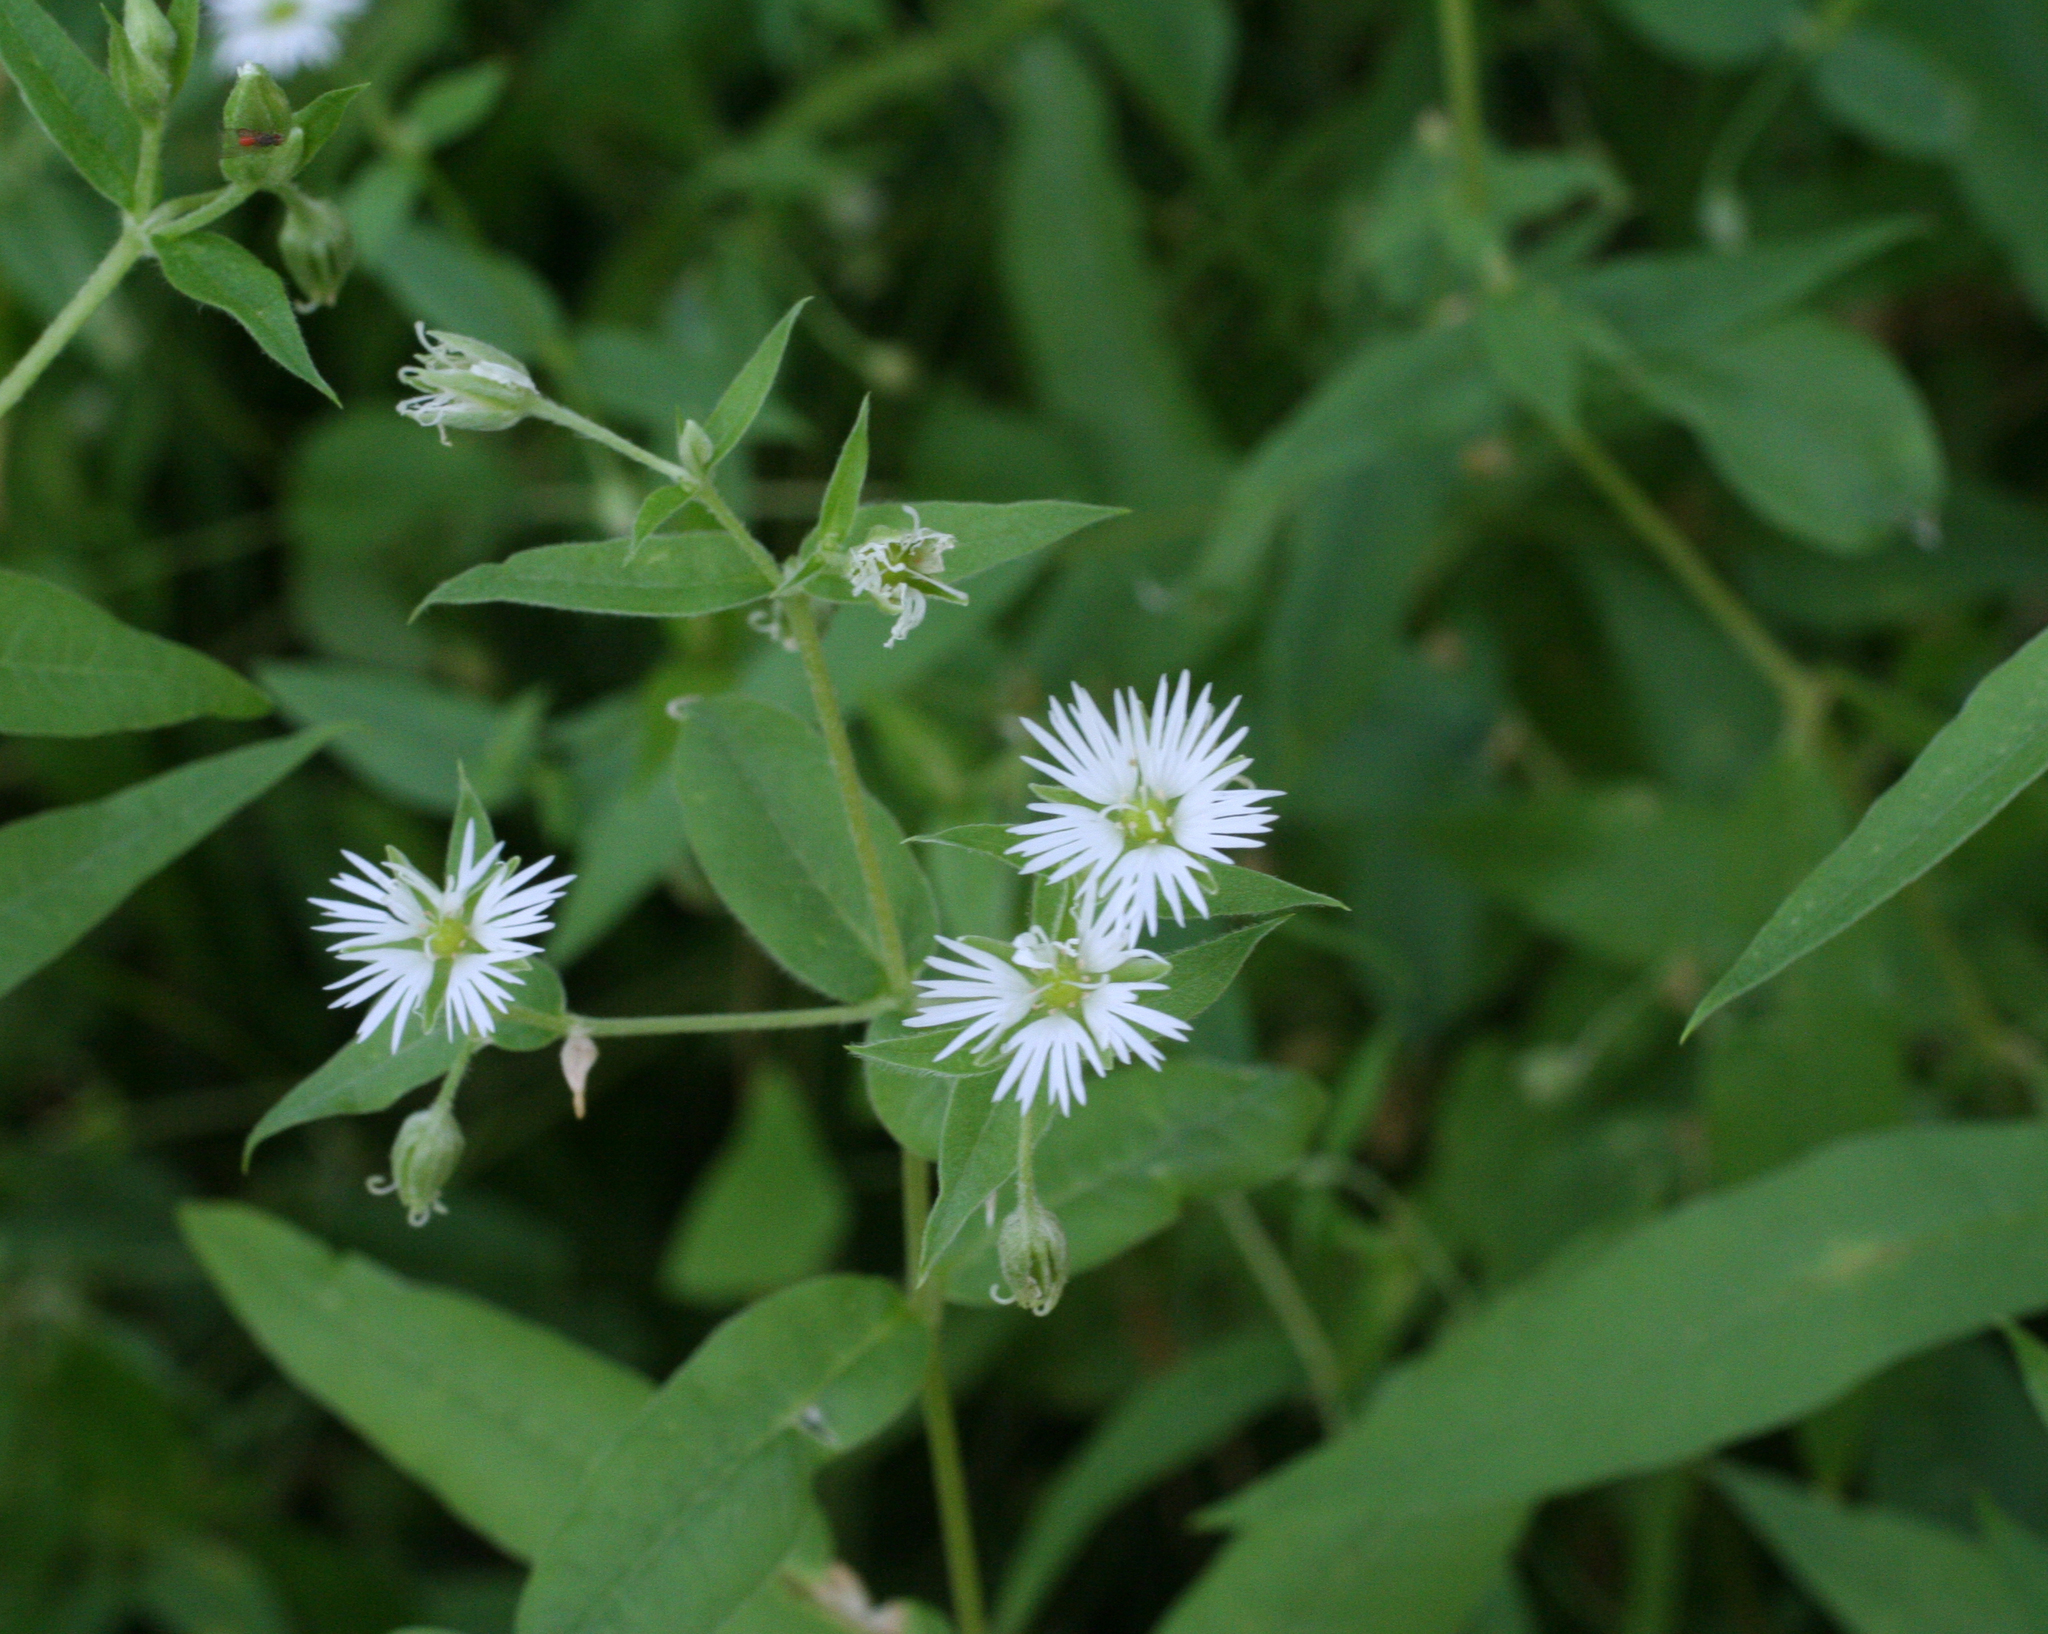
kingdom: Plantae
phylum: Tracheophyta
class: Magnoliopsida
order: Caryophyllales
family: Caryophyllaceae
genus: Stellaria
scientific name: Stellaria radians
